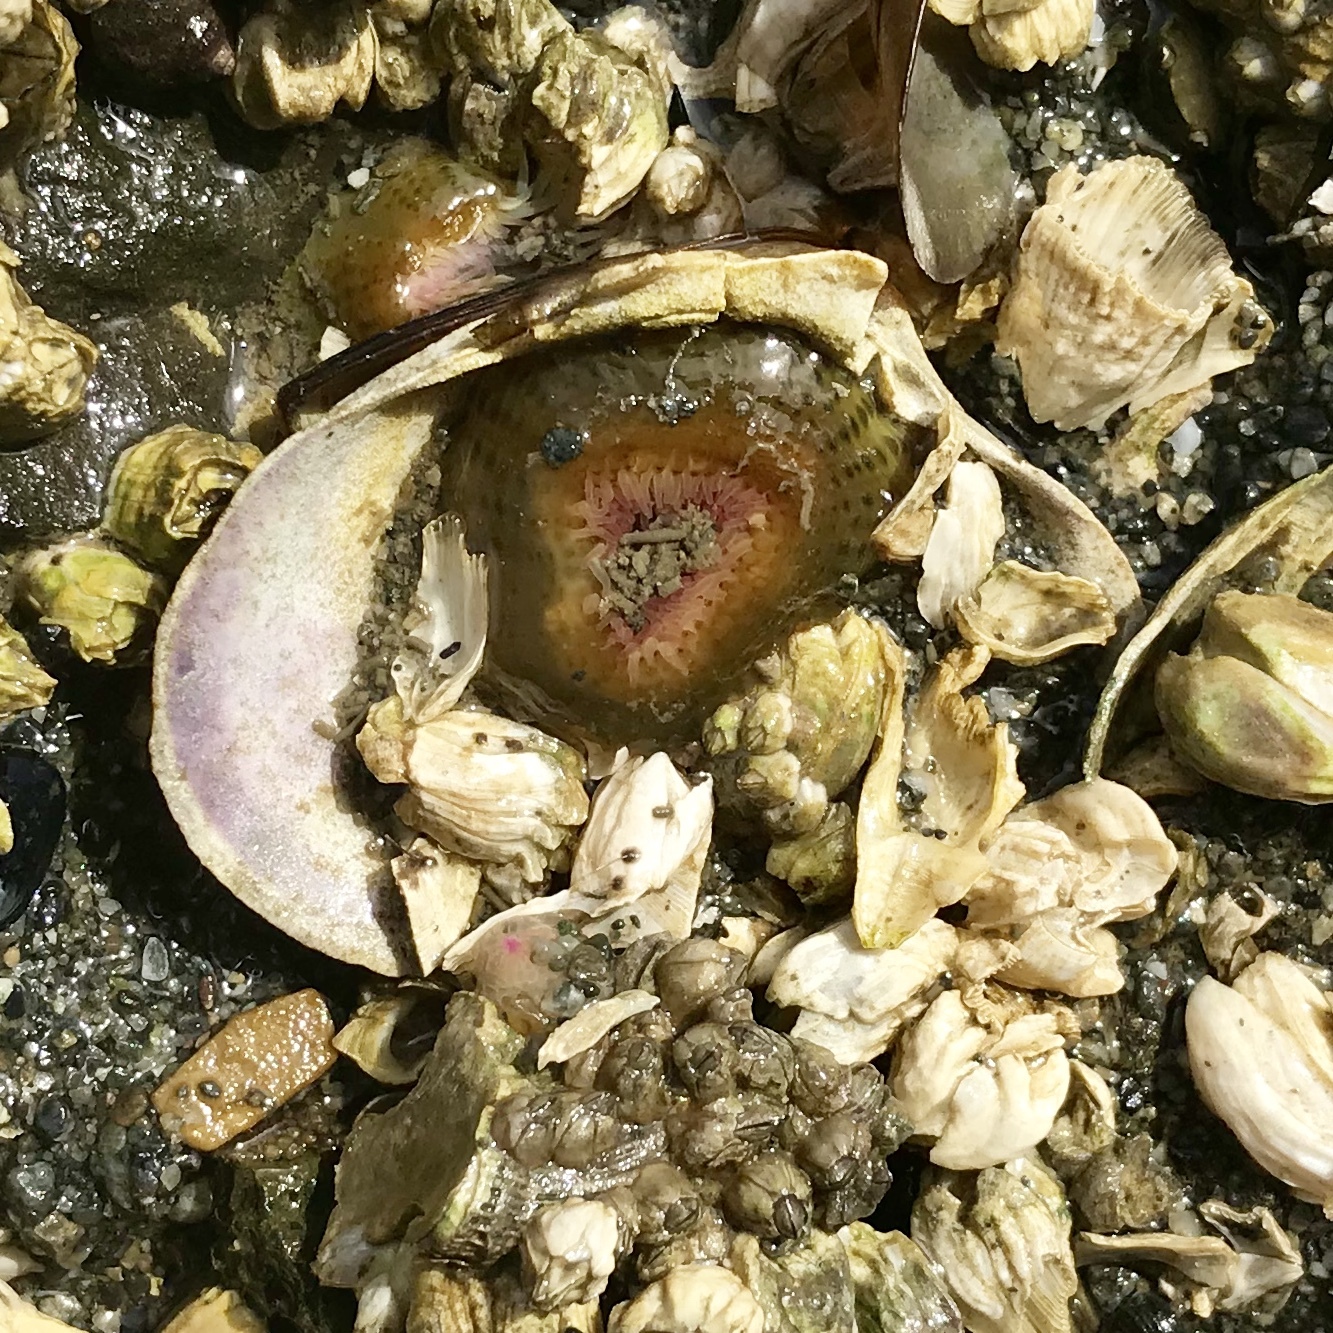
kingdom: Animalia
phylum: Cnidaria
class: Anthozoa
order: Actiniaria
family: Actiniidae
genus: Anthopleura
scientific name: Anthopleura elegantissima
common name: Clonal anemone
